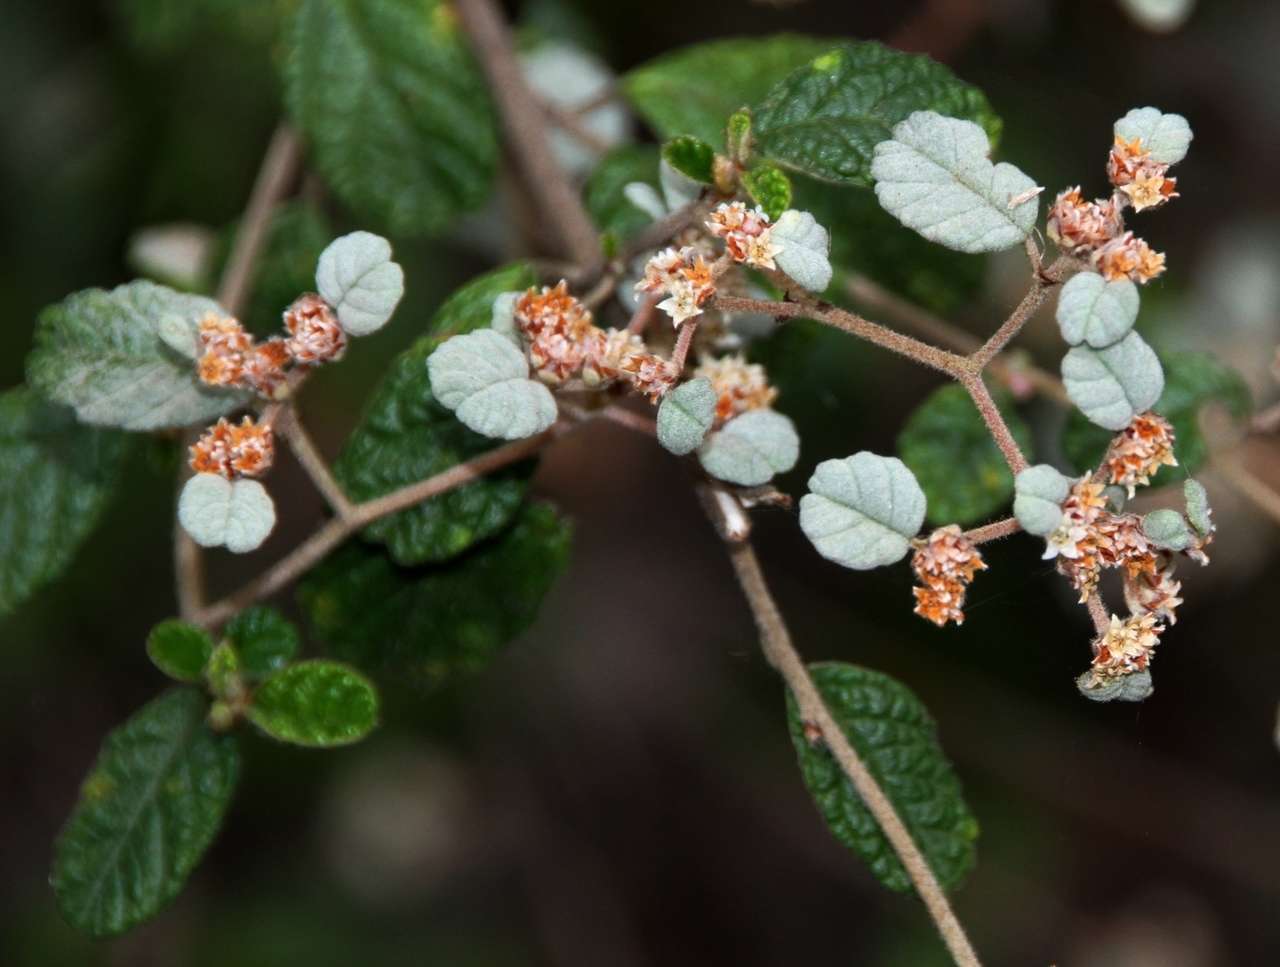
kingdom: Plantae
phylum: Tracheophyta
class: Magnoliopsida
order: Rosales
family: Rhamnaceae
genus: Spyridium
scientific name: Spyridium parvifolium
